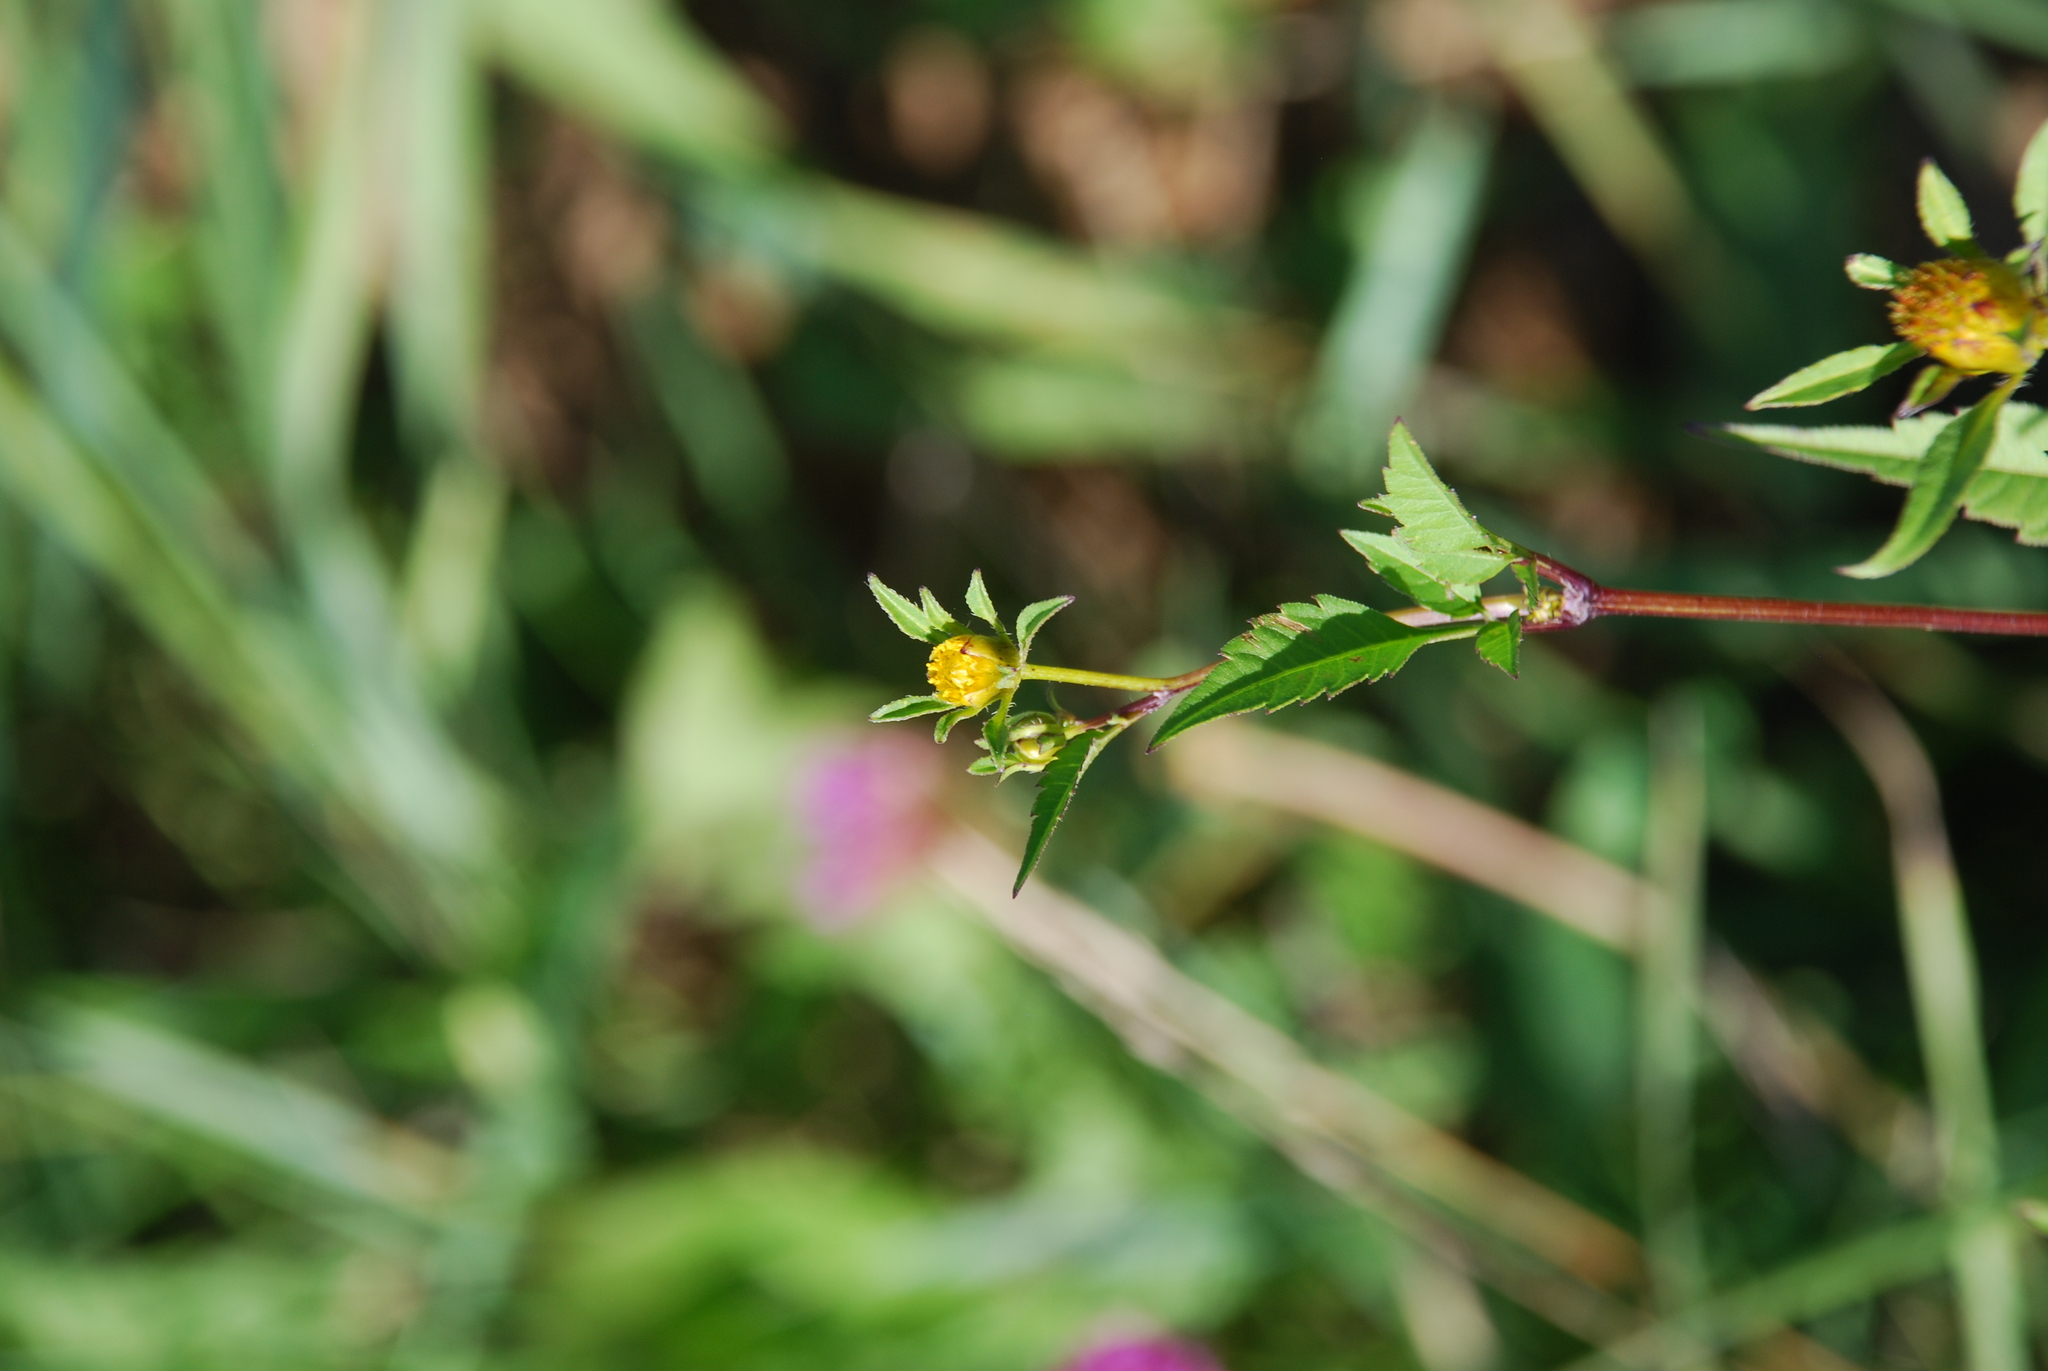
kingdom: Plantae
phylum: Tracheophyta
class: Magnoliopsida
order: Asterales
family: Asteraceae
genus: Bidens
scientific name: Bidens frondosa
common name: Beggarticks
